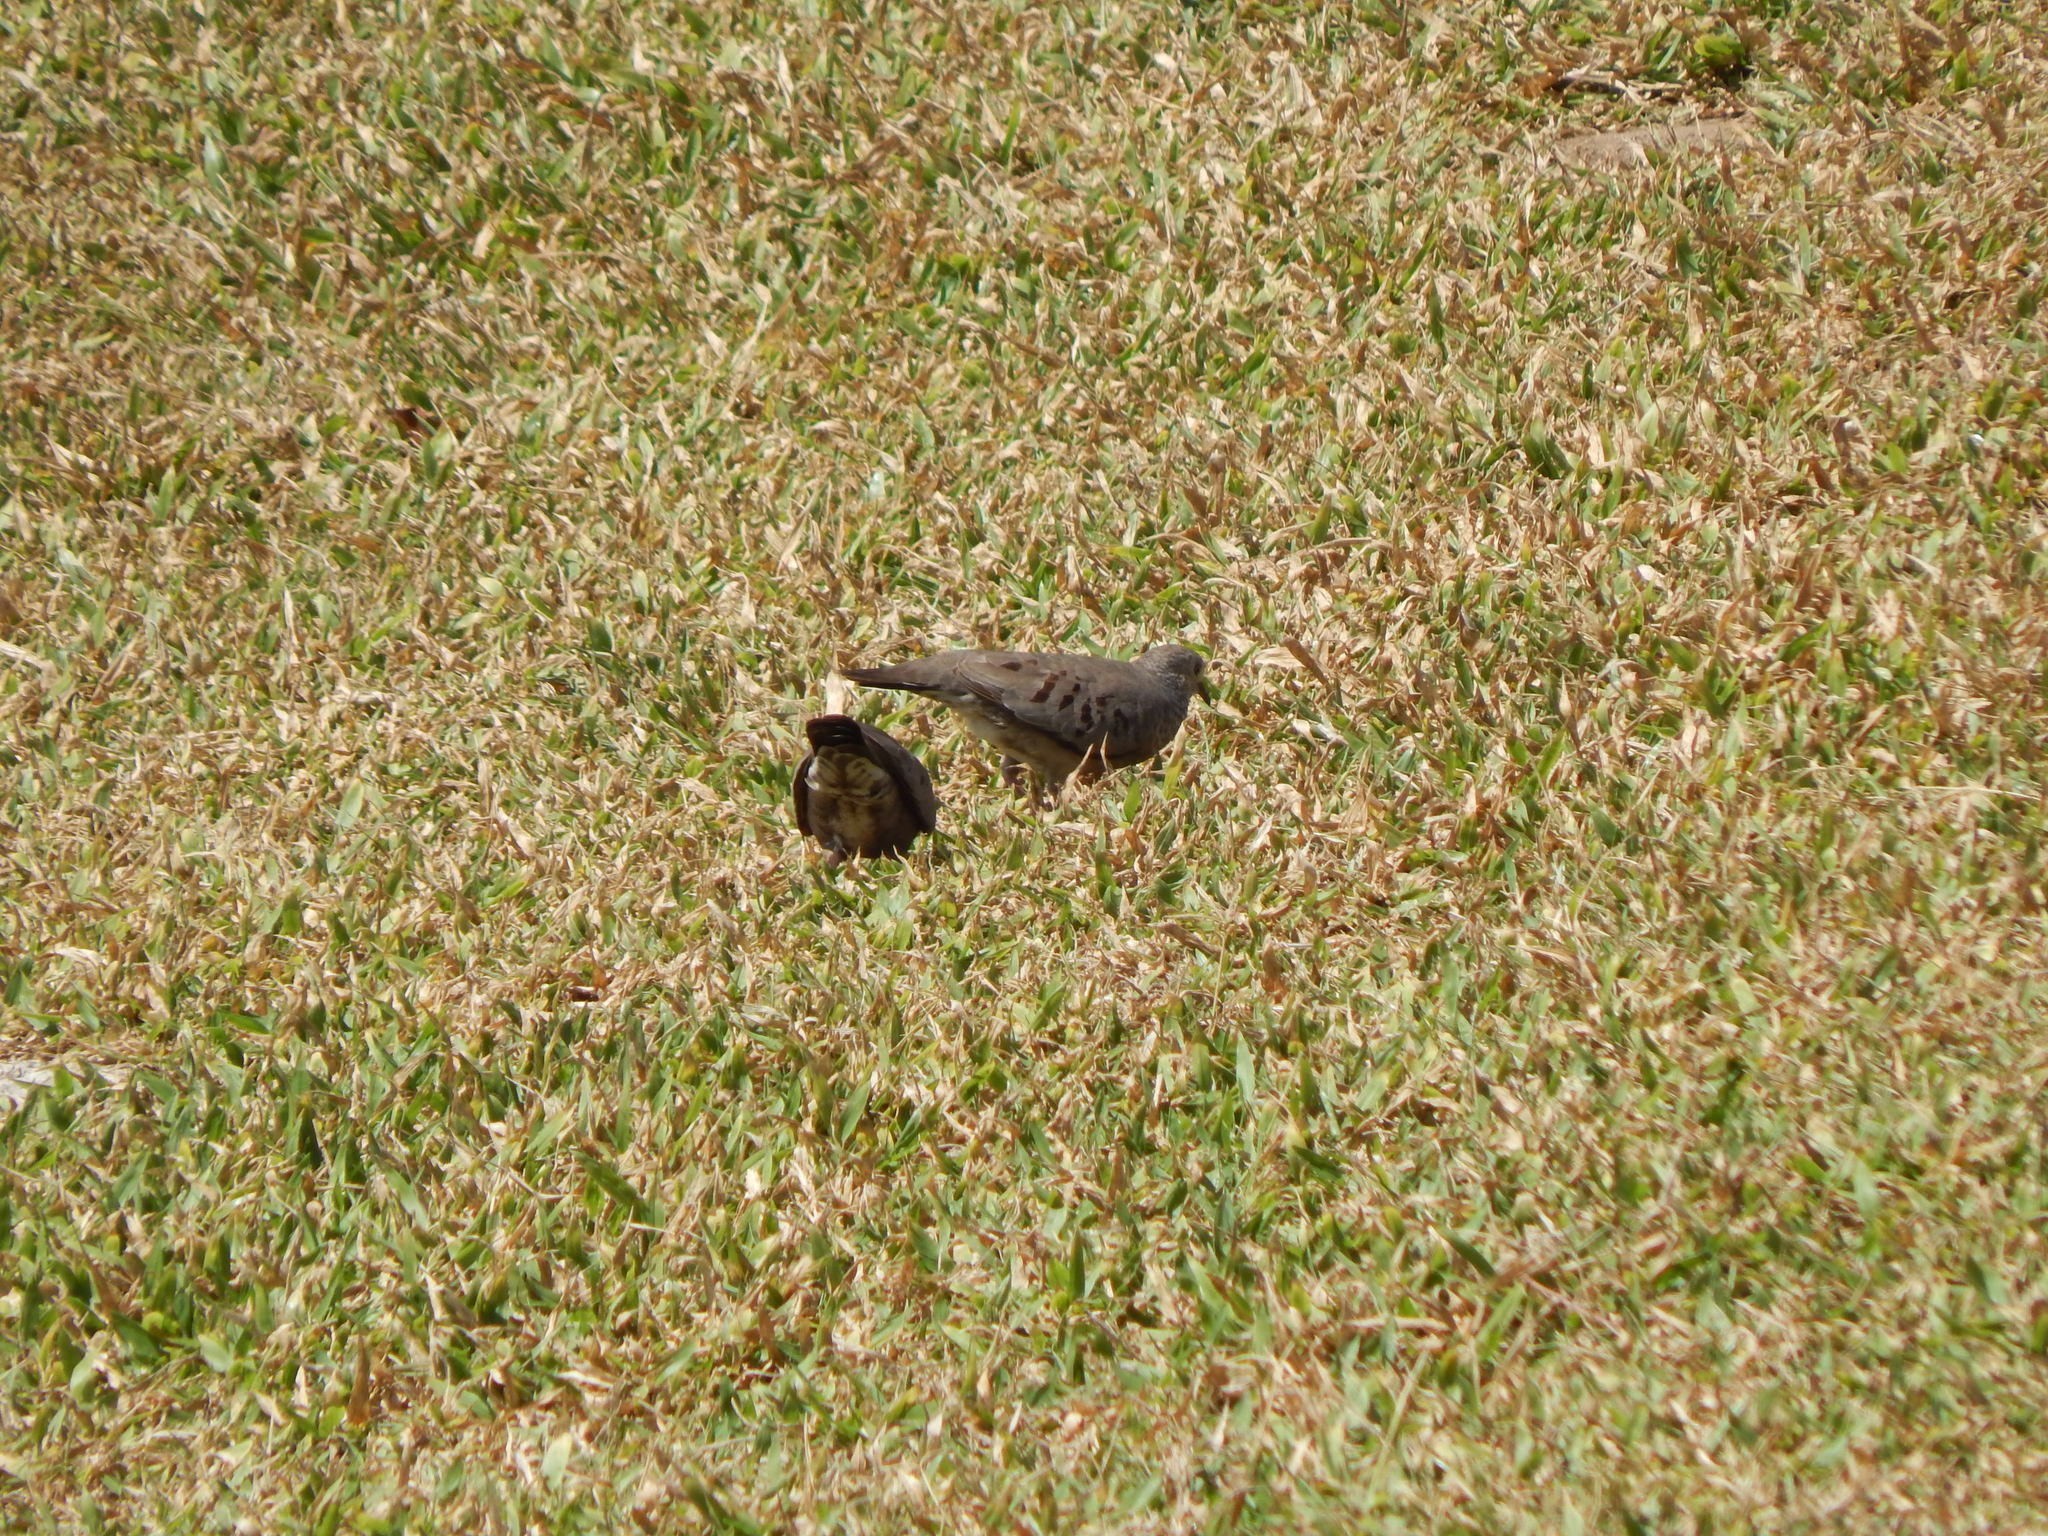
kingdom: Animalia
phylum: Chordata
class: Aves
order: Columbiformes
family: Columbidae
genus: Columbina
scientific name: Columbina passerina
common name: Common ground-dove
